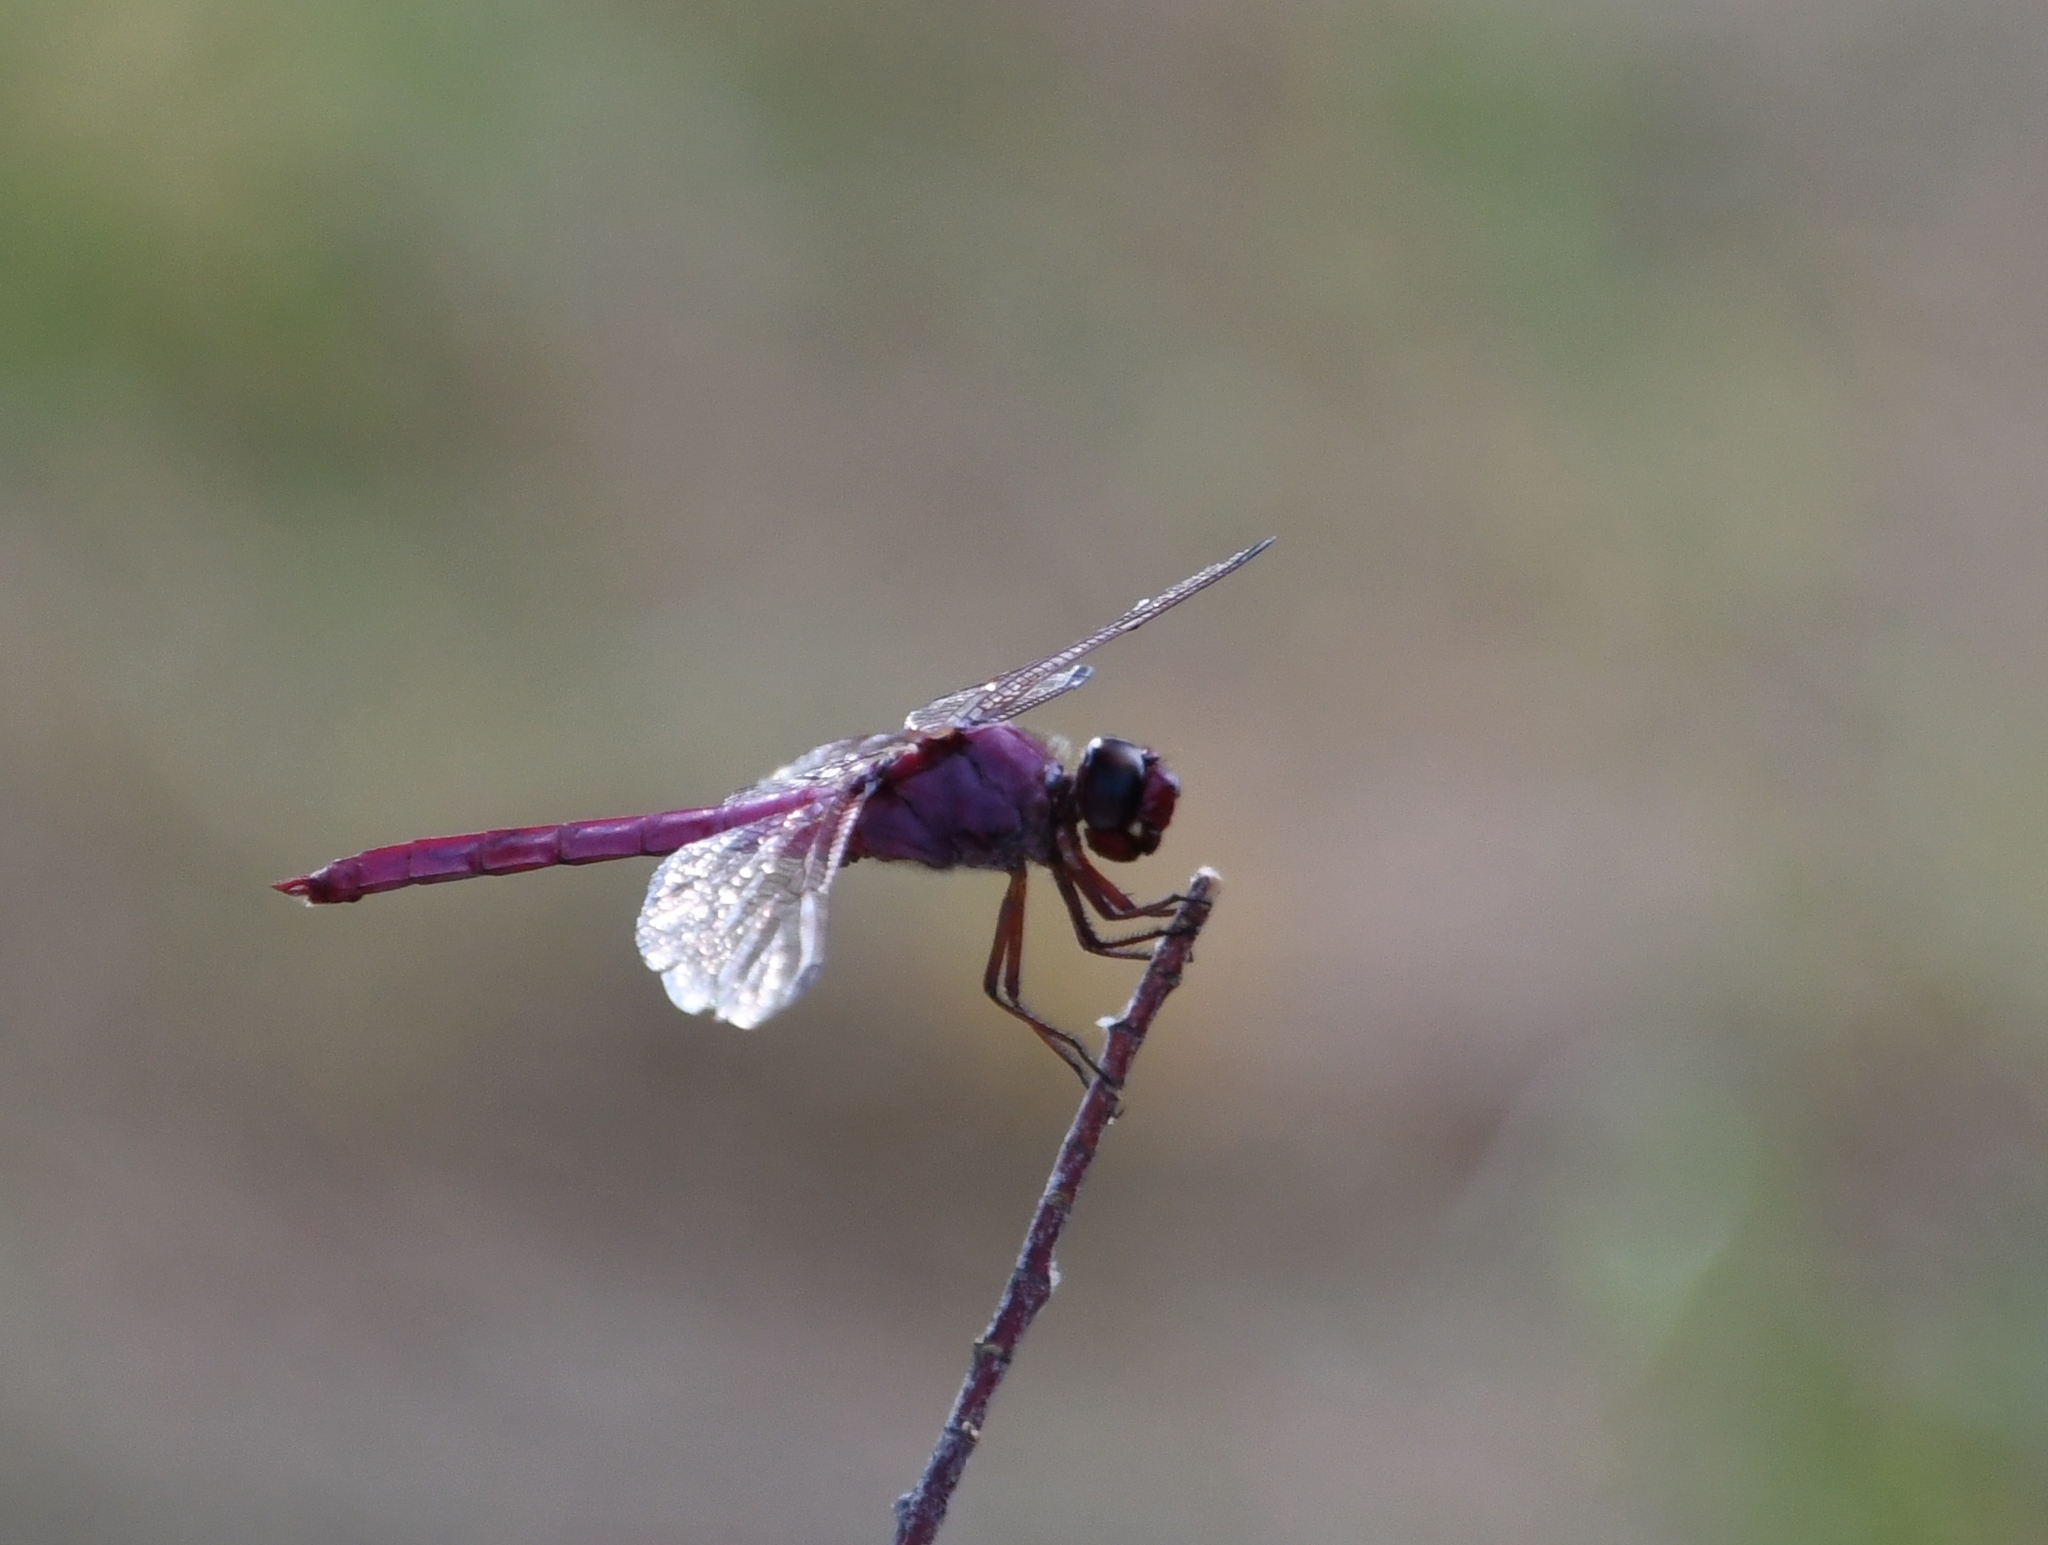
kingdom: Animalia
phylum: Arthropoda
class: Insecta
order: Odonata
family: Libellulidae
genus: Orthemis
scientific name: Orthemis ferruginea
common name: Roseate skimmer
